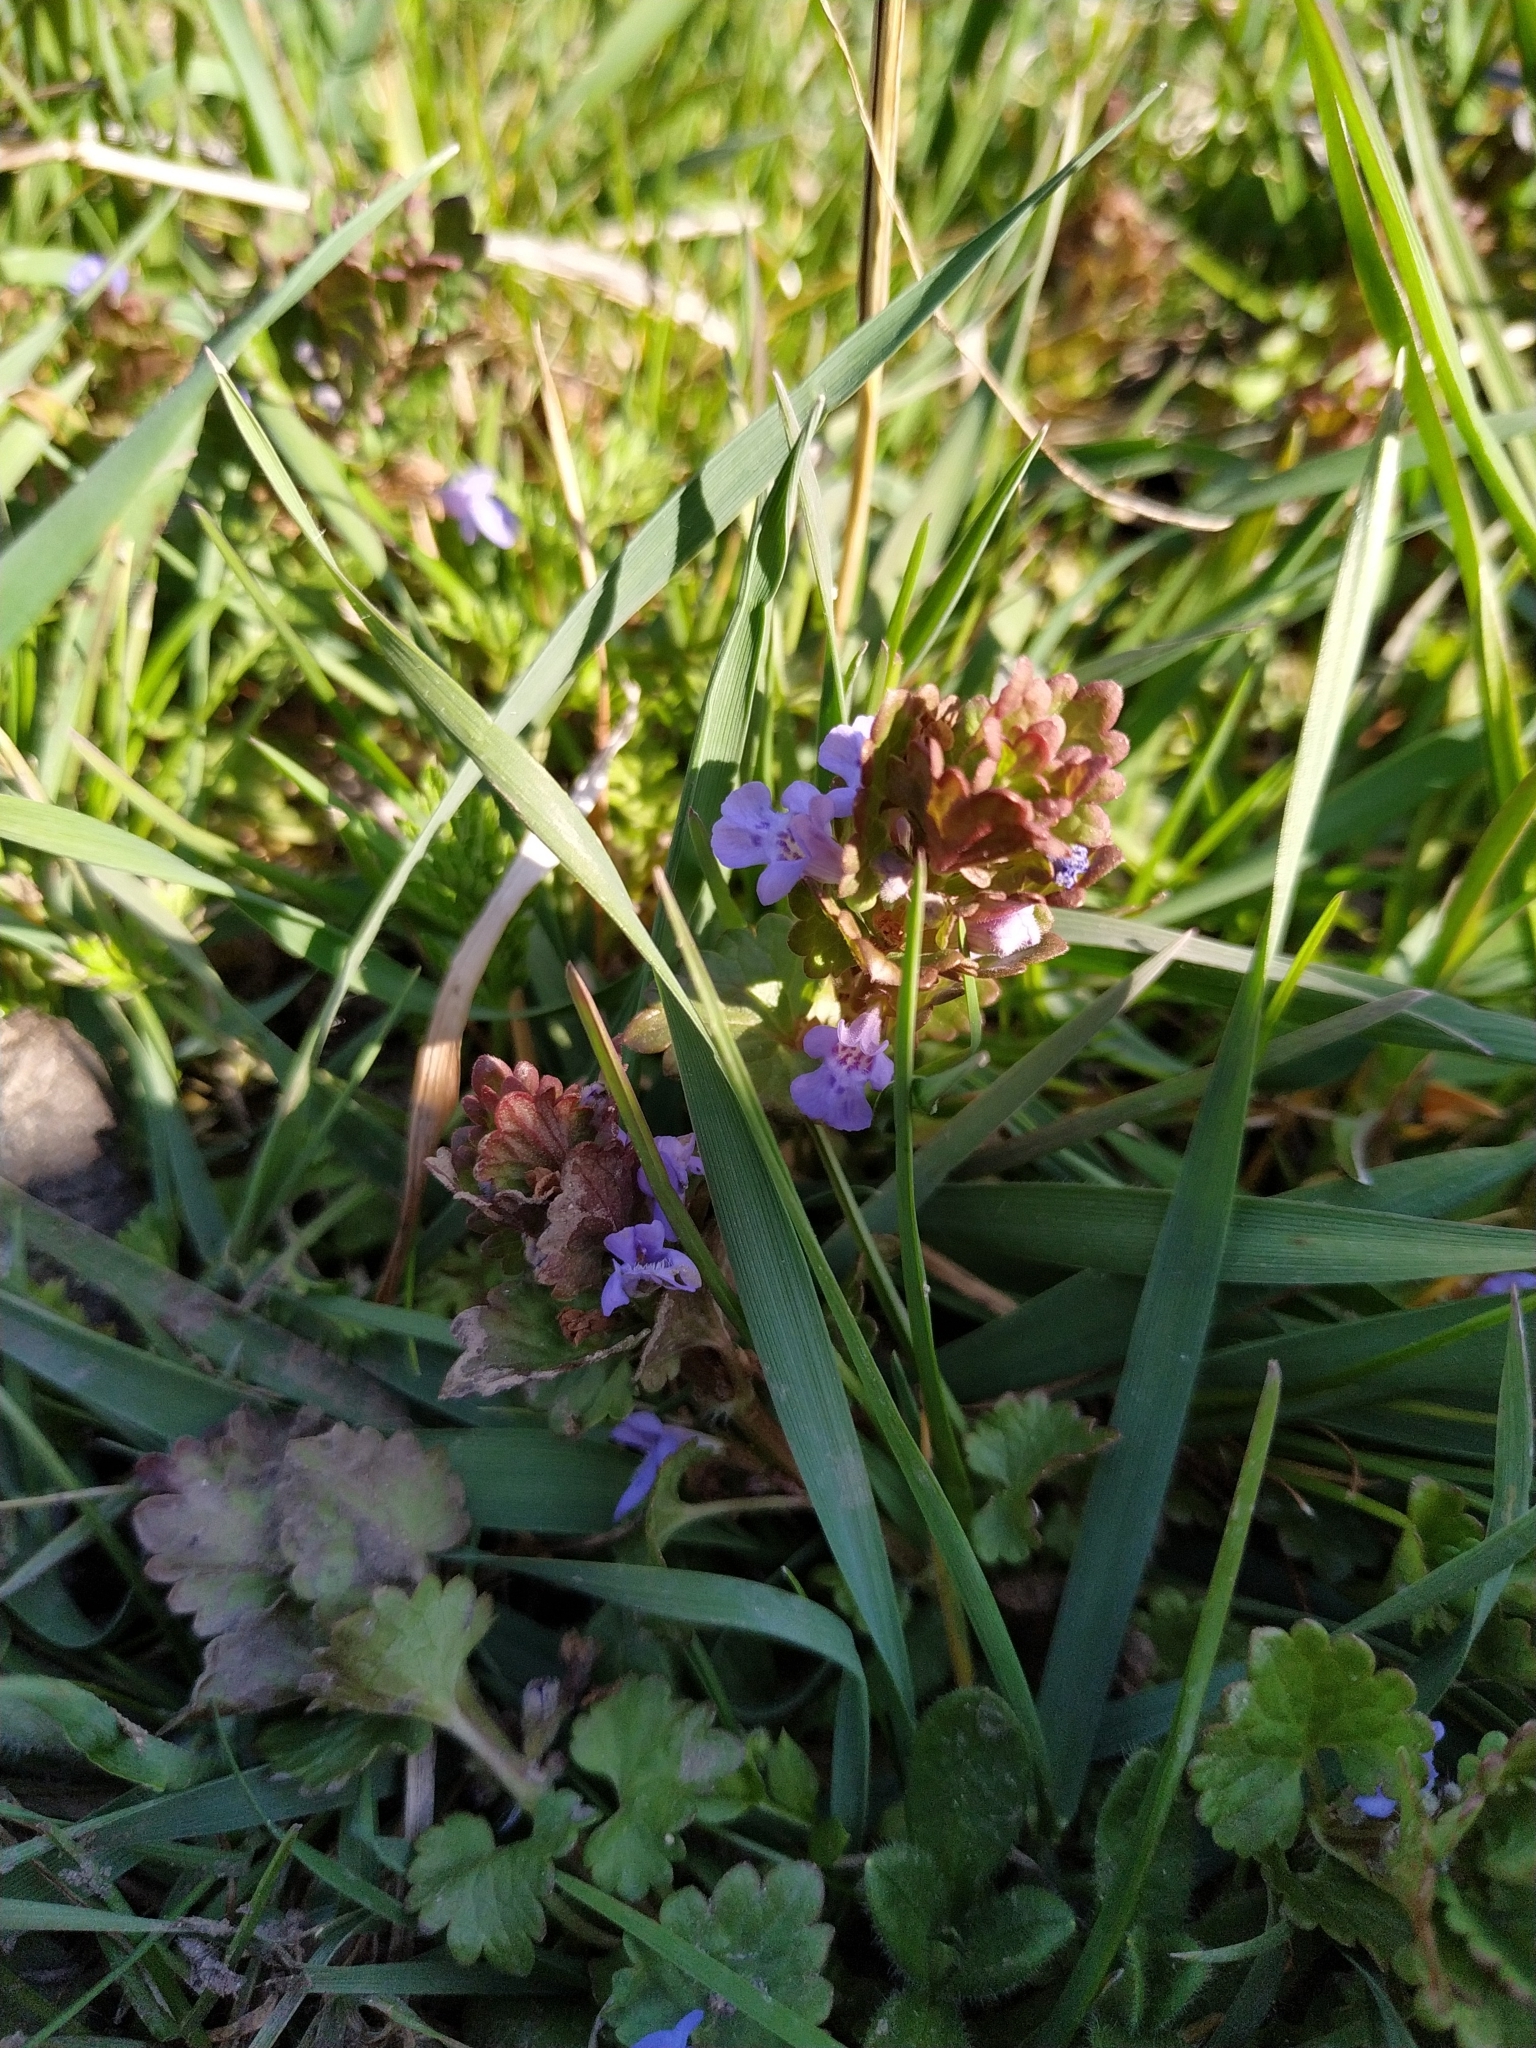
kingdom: Plantae
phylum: Tracheophyta
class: Magnoliopsida
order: Lamiales
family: Lamiaceae
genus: Glechoma
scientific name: Glechoma hederacea
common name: Ground ivy
